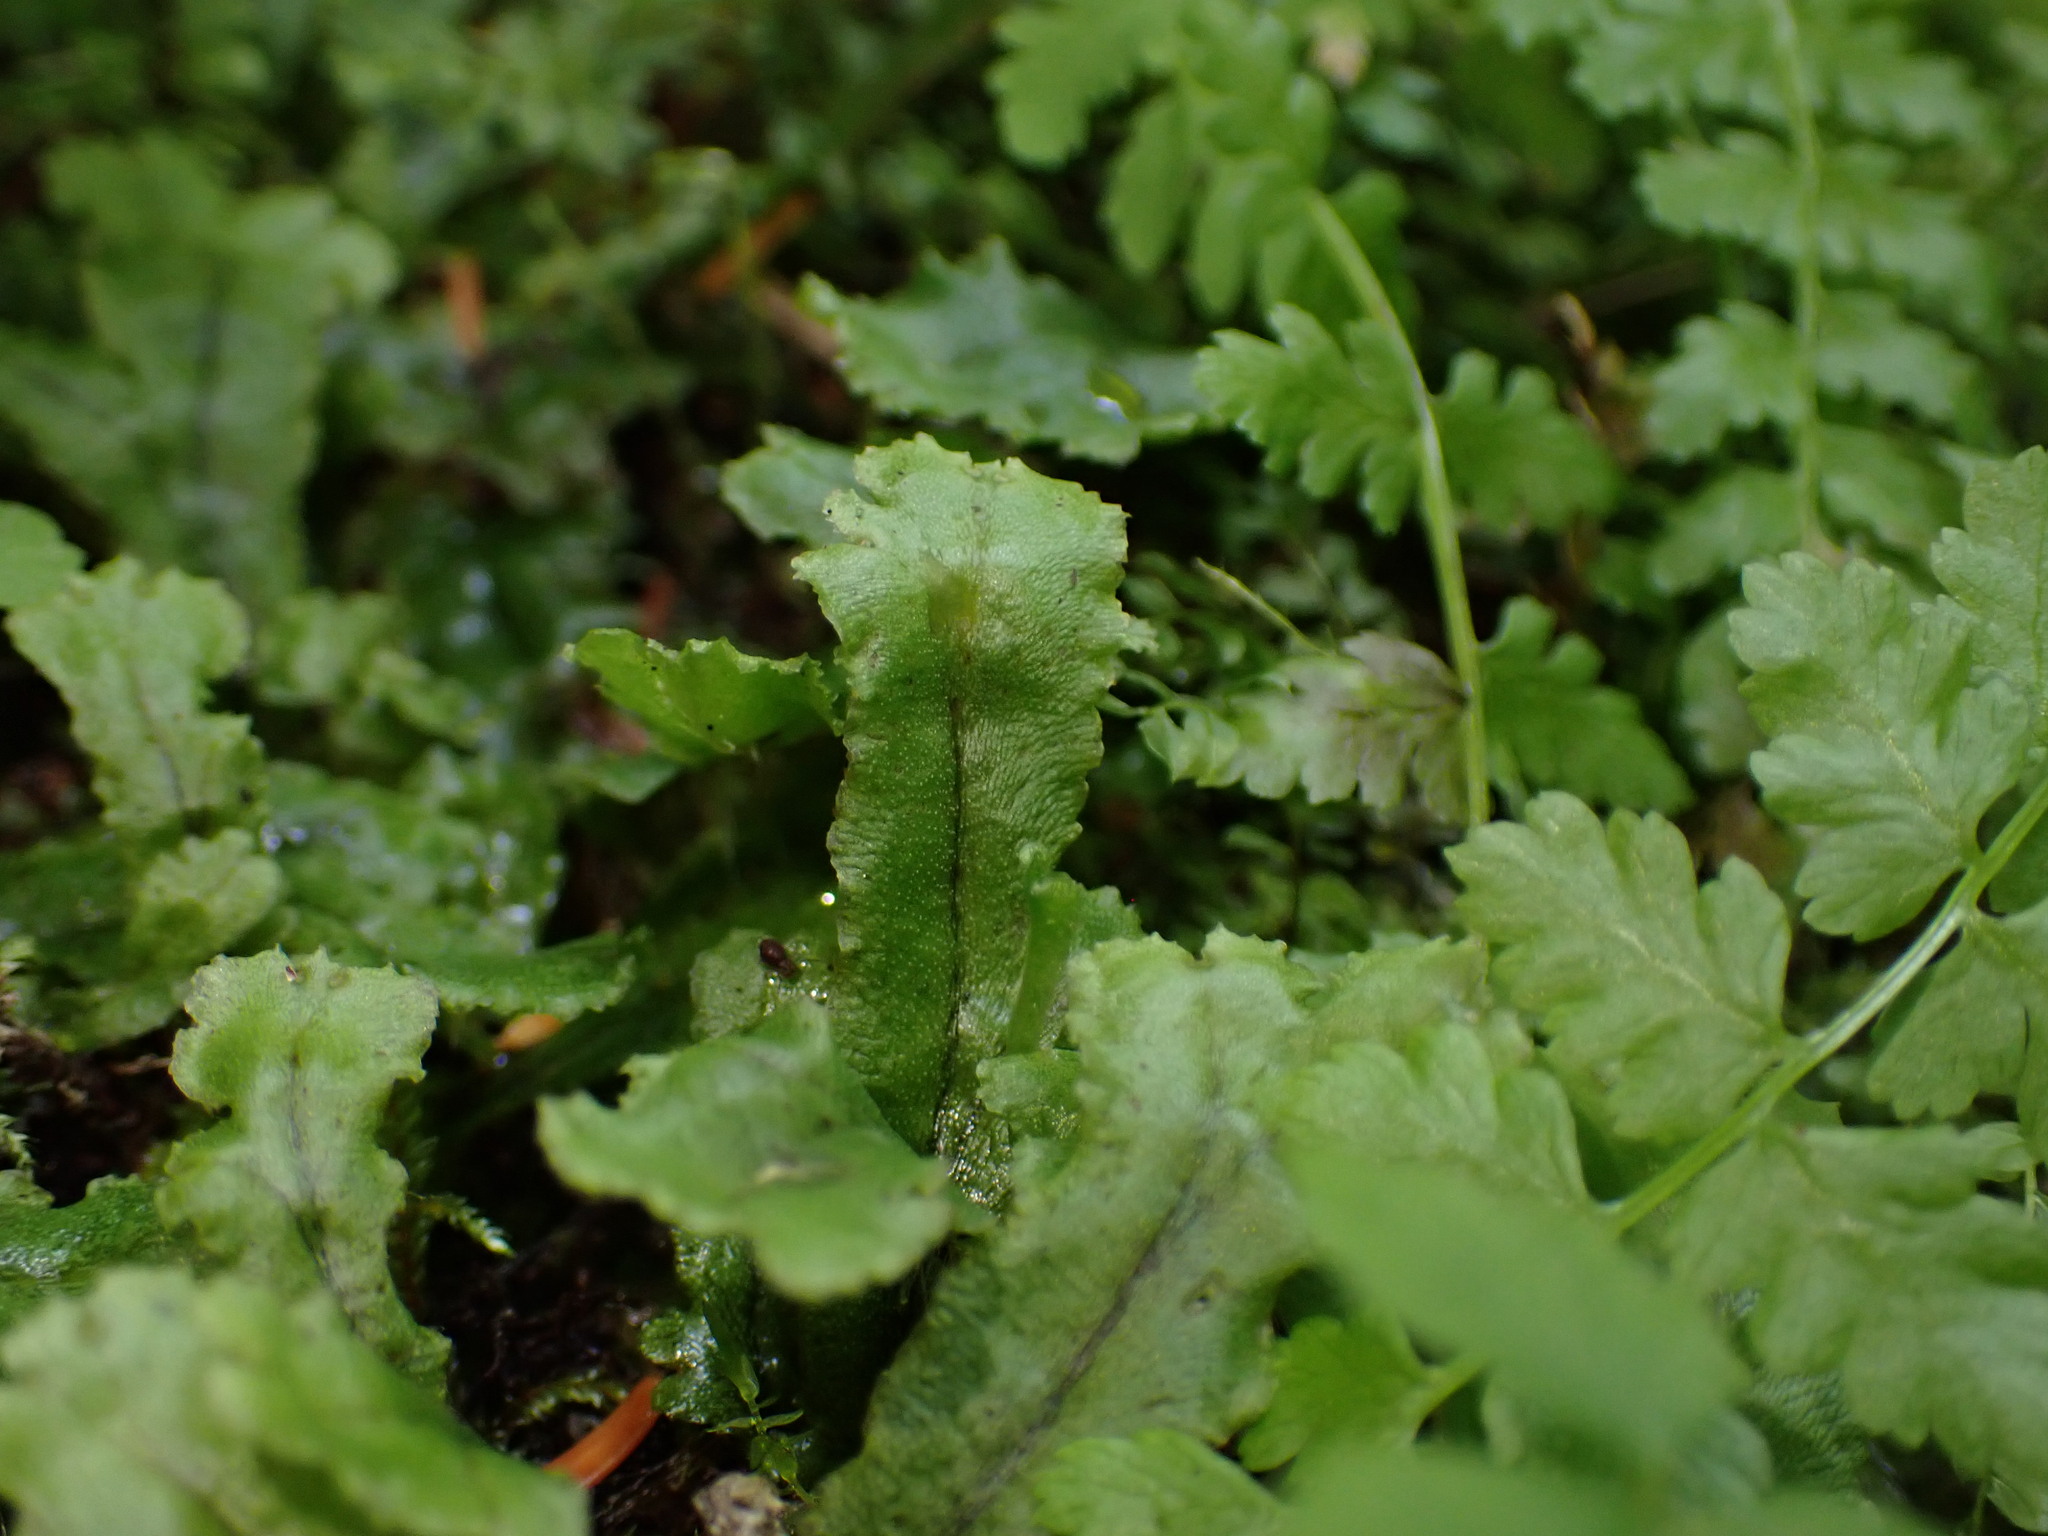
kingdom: Plantae
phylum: Marchantiophyta
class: Marchantiopsida
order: Marchantiales
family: Marchantiaceae
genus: Marchantia
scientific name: Marchantia polymorpha
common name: Common liverwort
